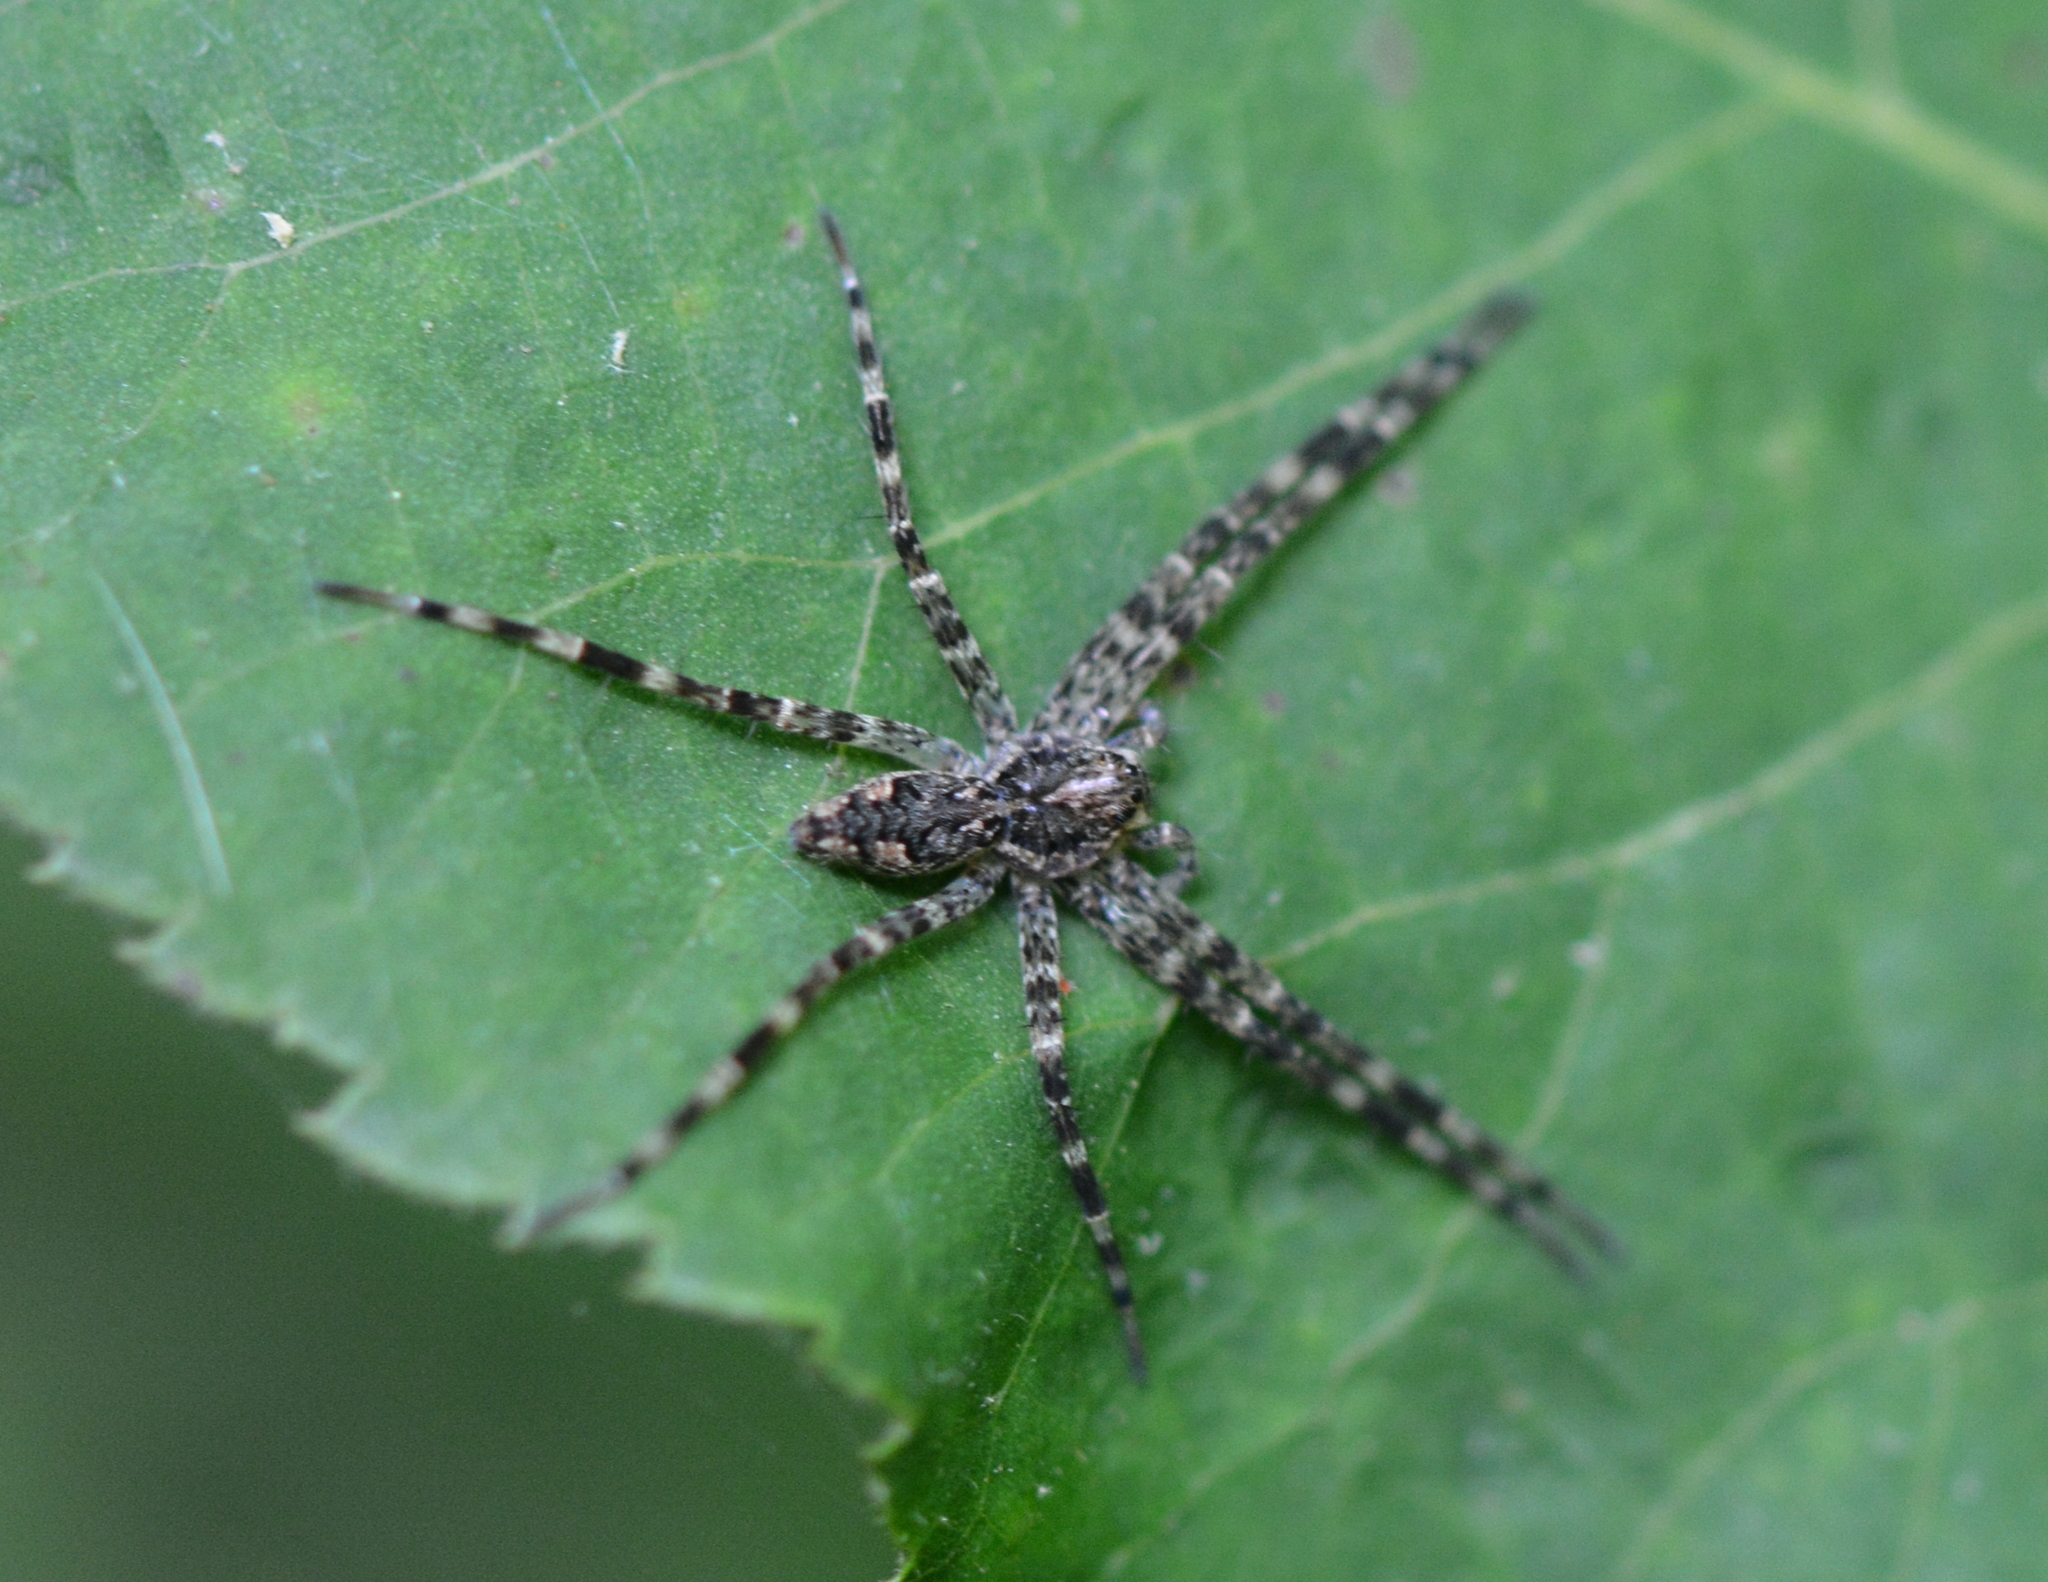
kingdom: Animalia
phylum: Arthropoda
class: Arachnida
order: Araneae
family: Pisauridae
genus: Dolomedes
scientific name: Dolomedes tenebrosus
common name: Dark fishing spider
